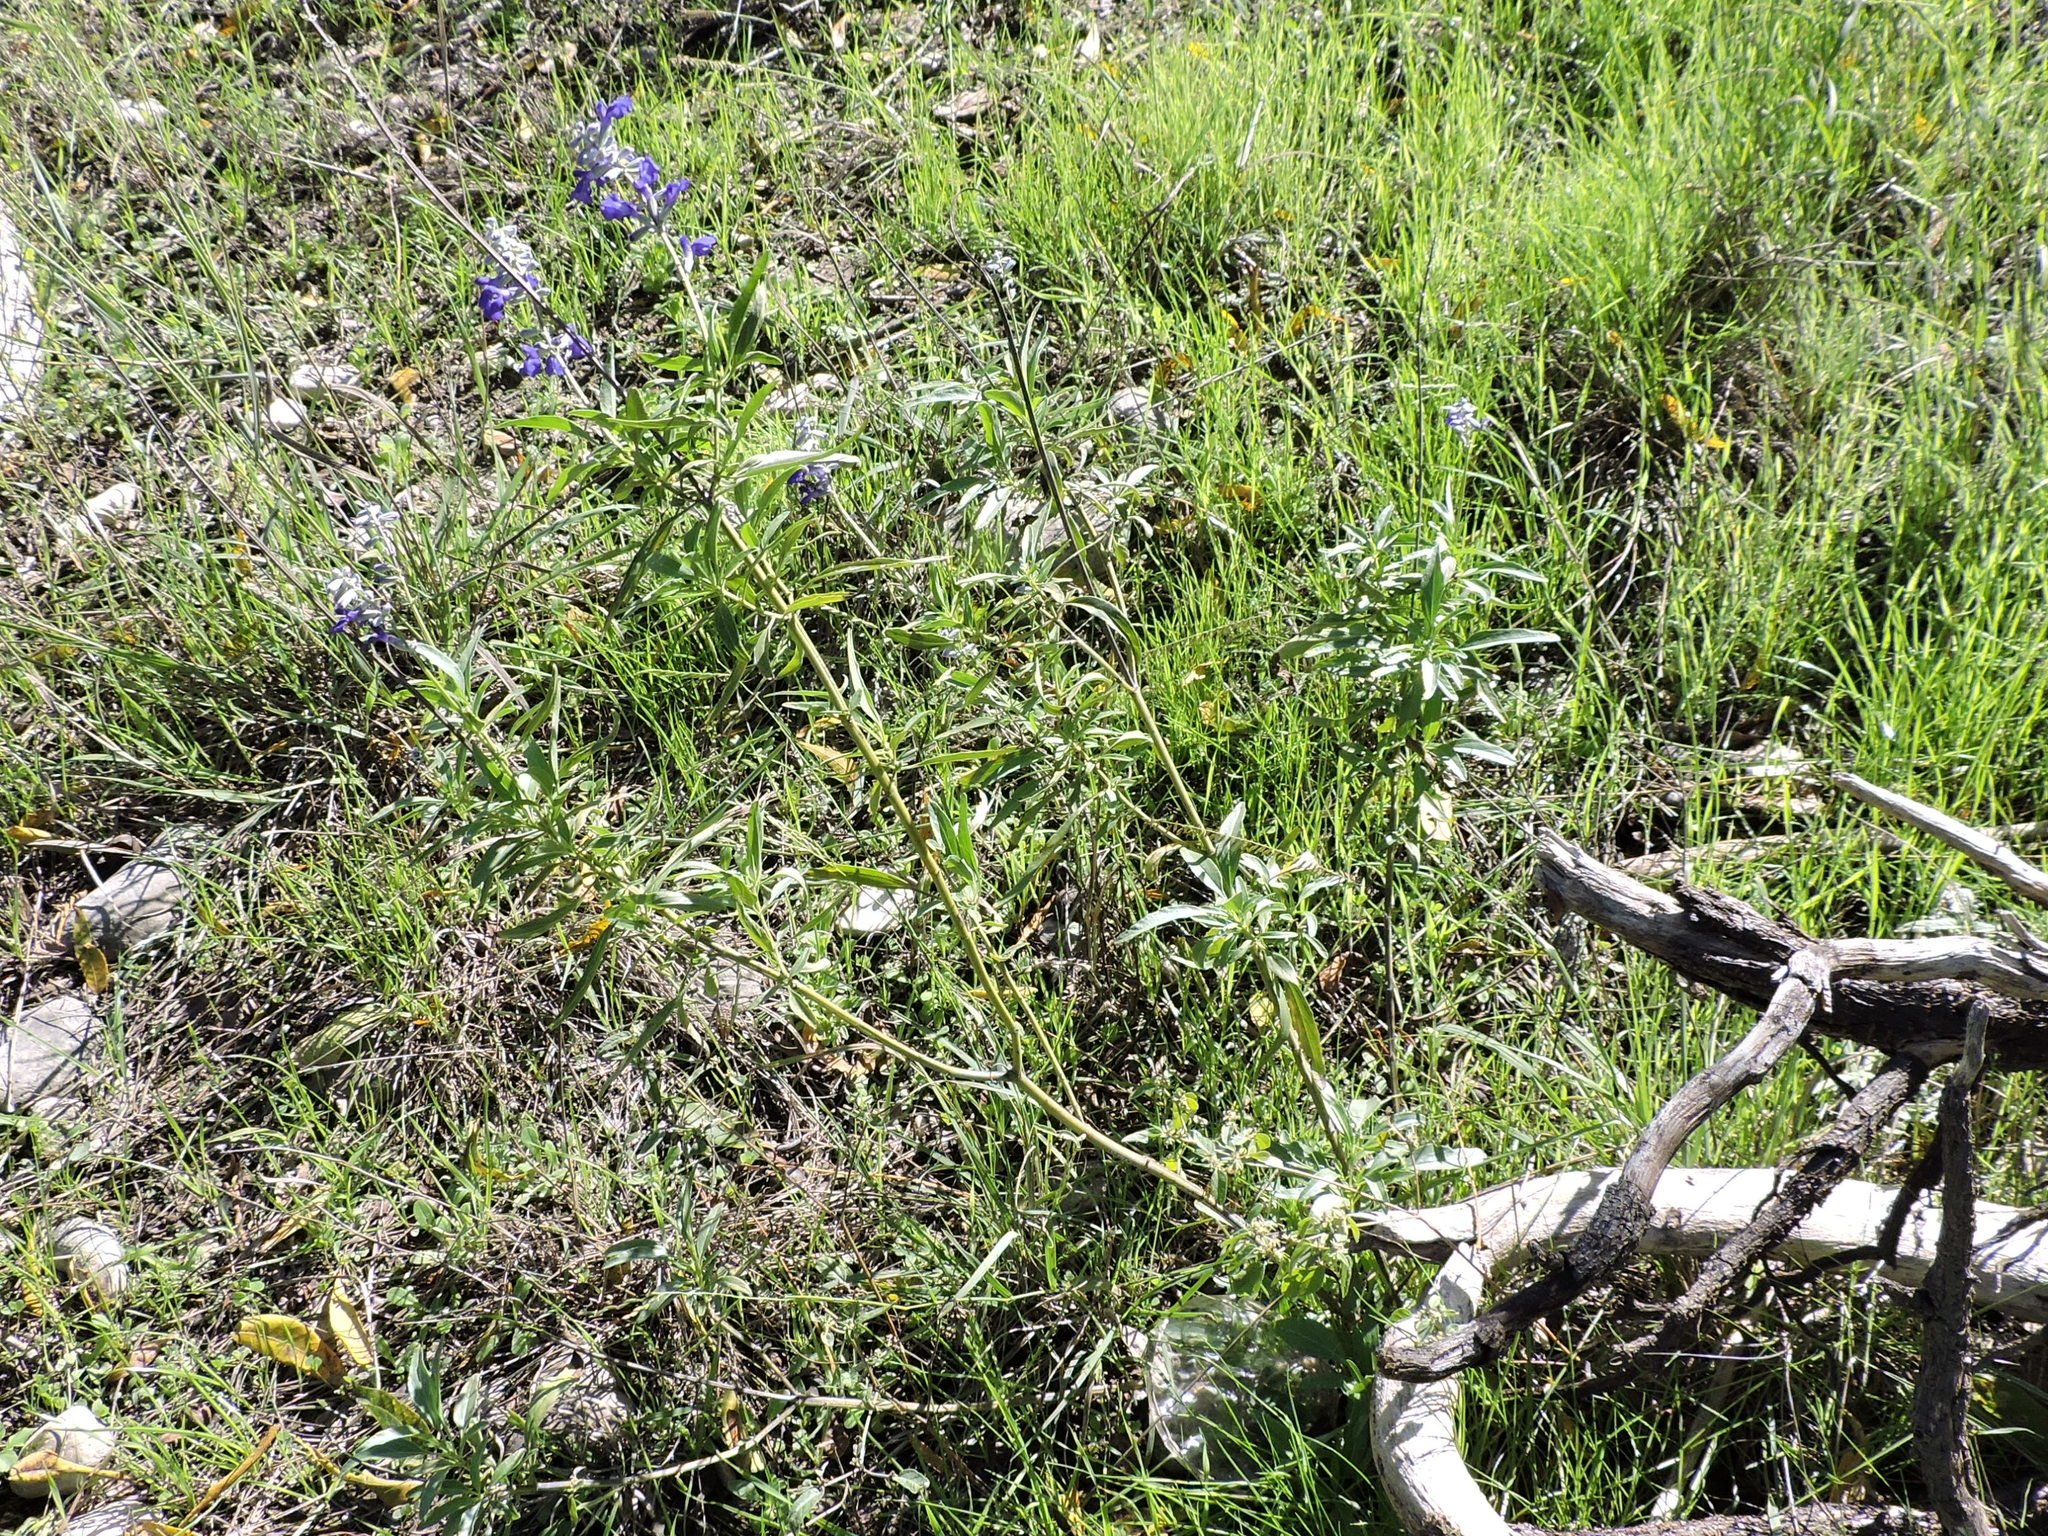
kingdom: Plantae
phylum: Tracheophyta
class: Magnoliopsida
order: Lamiales
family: Lamiaceae
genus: Salvia
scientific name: Salvia farinacea
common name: Mealy sage
